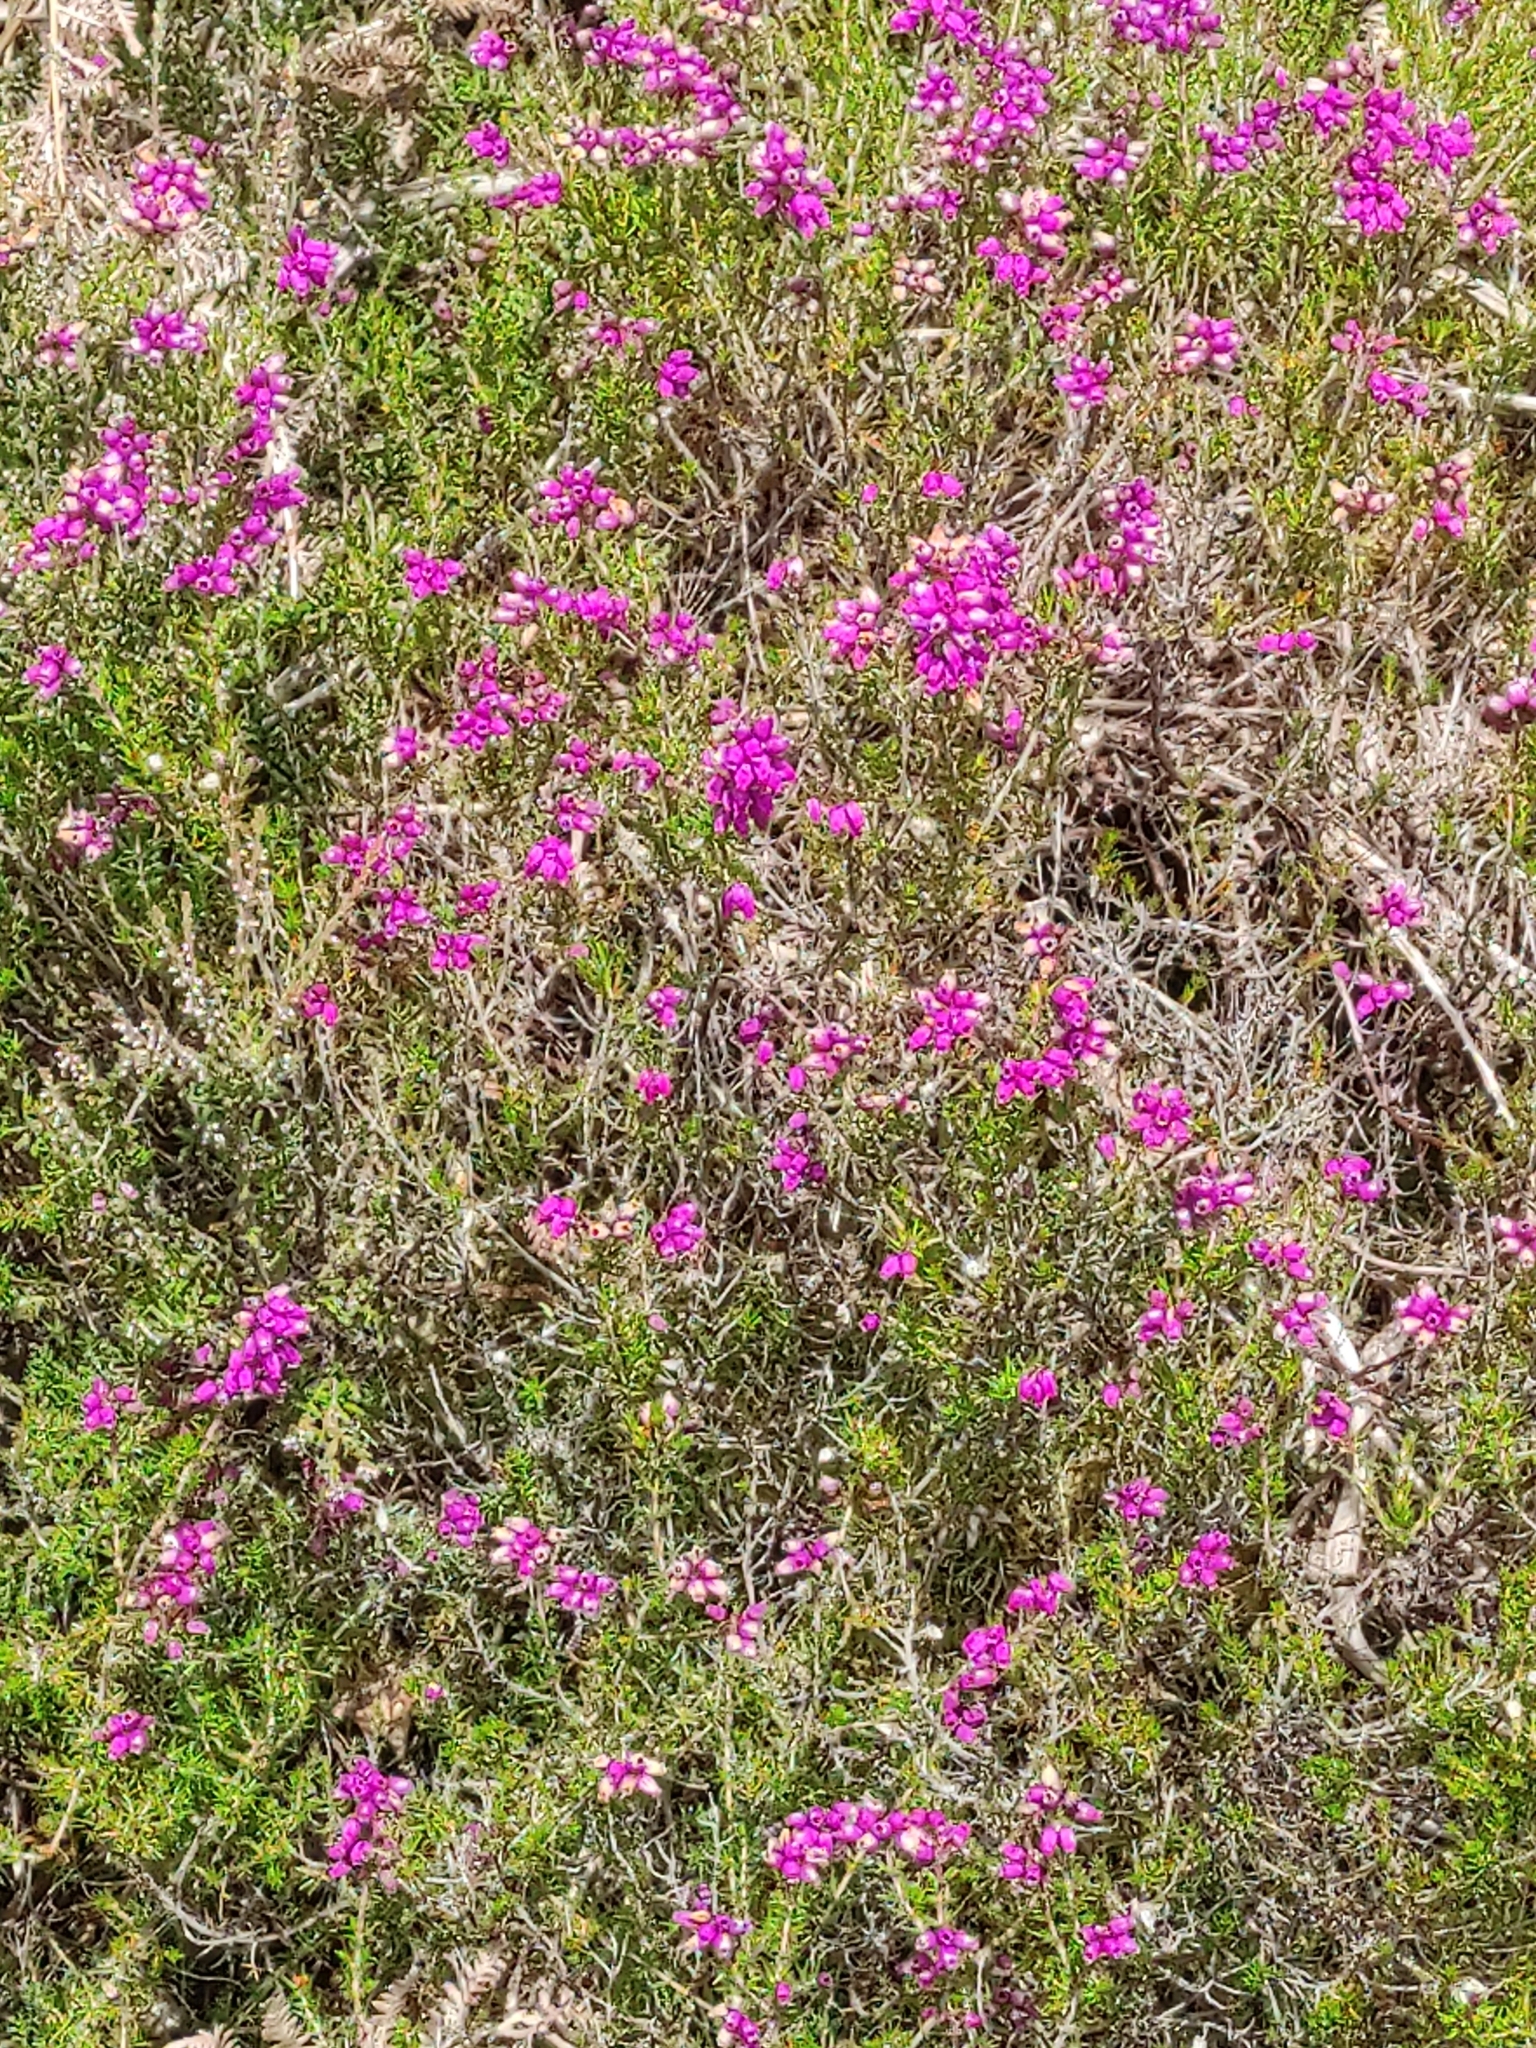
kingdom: Plantae
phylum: Tracheophyta
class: Magnoliopsida
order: Ericales
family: Ericaceae
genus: Erica
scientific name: Erica cinerea
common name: Bell heather
